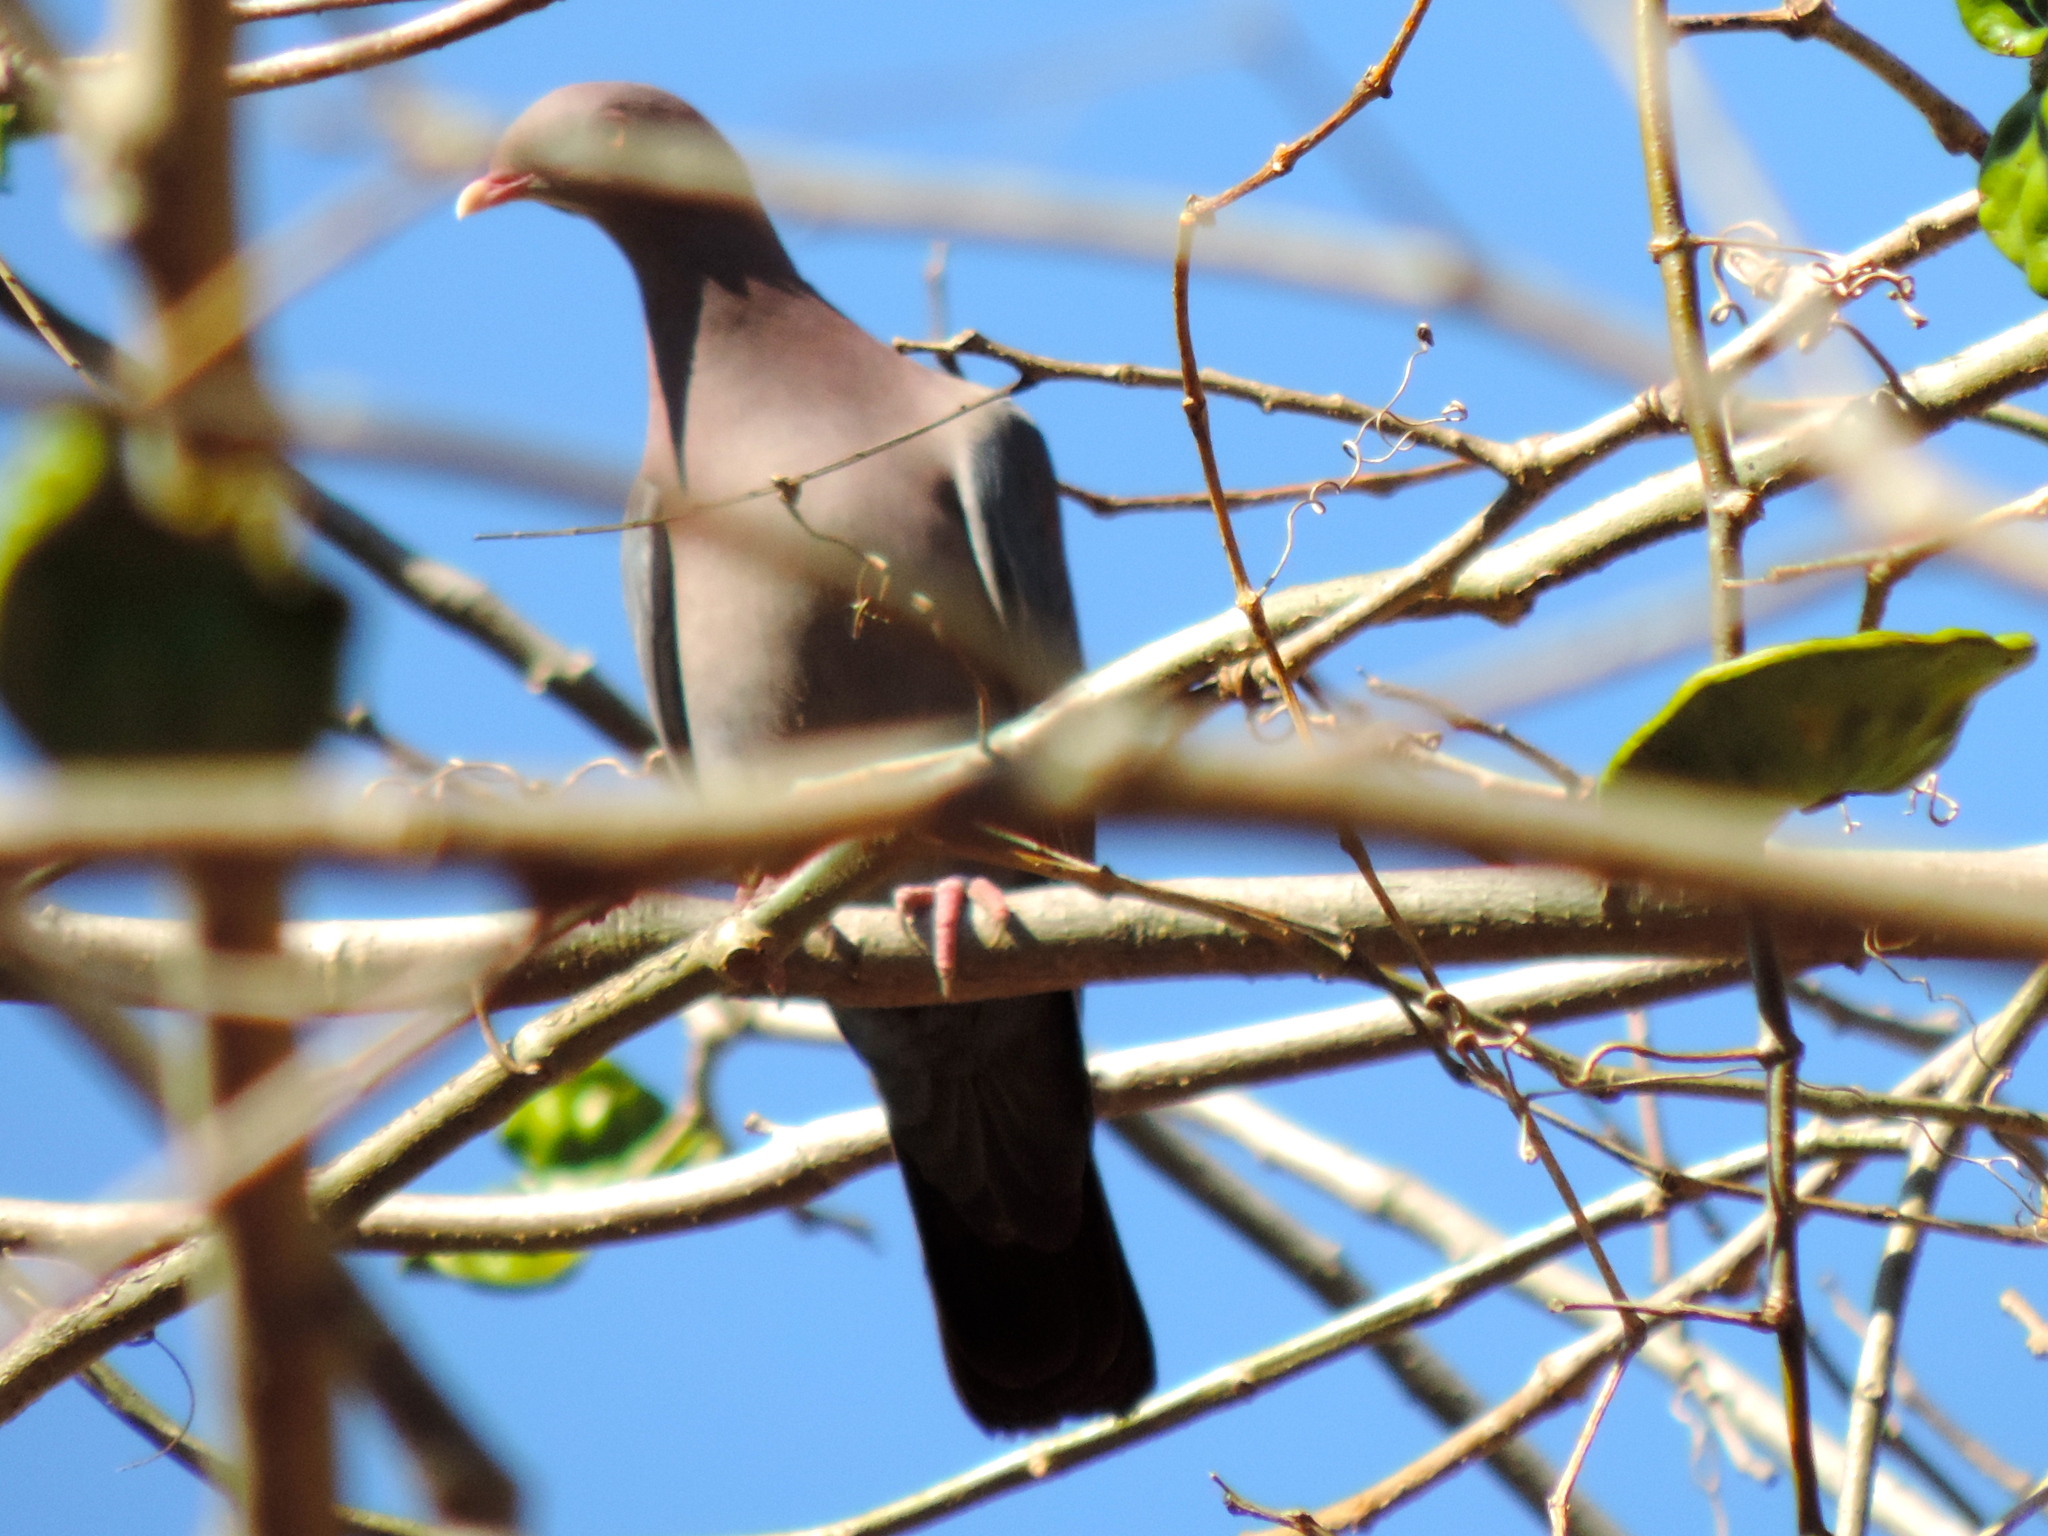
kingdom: Animalia
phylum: Chordata
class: Aves
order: Columbiformes
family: Columbidae
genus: Patagioenas
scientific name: Patagioenas flavirostris
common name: Red-billed pigeon
